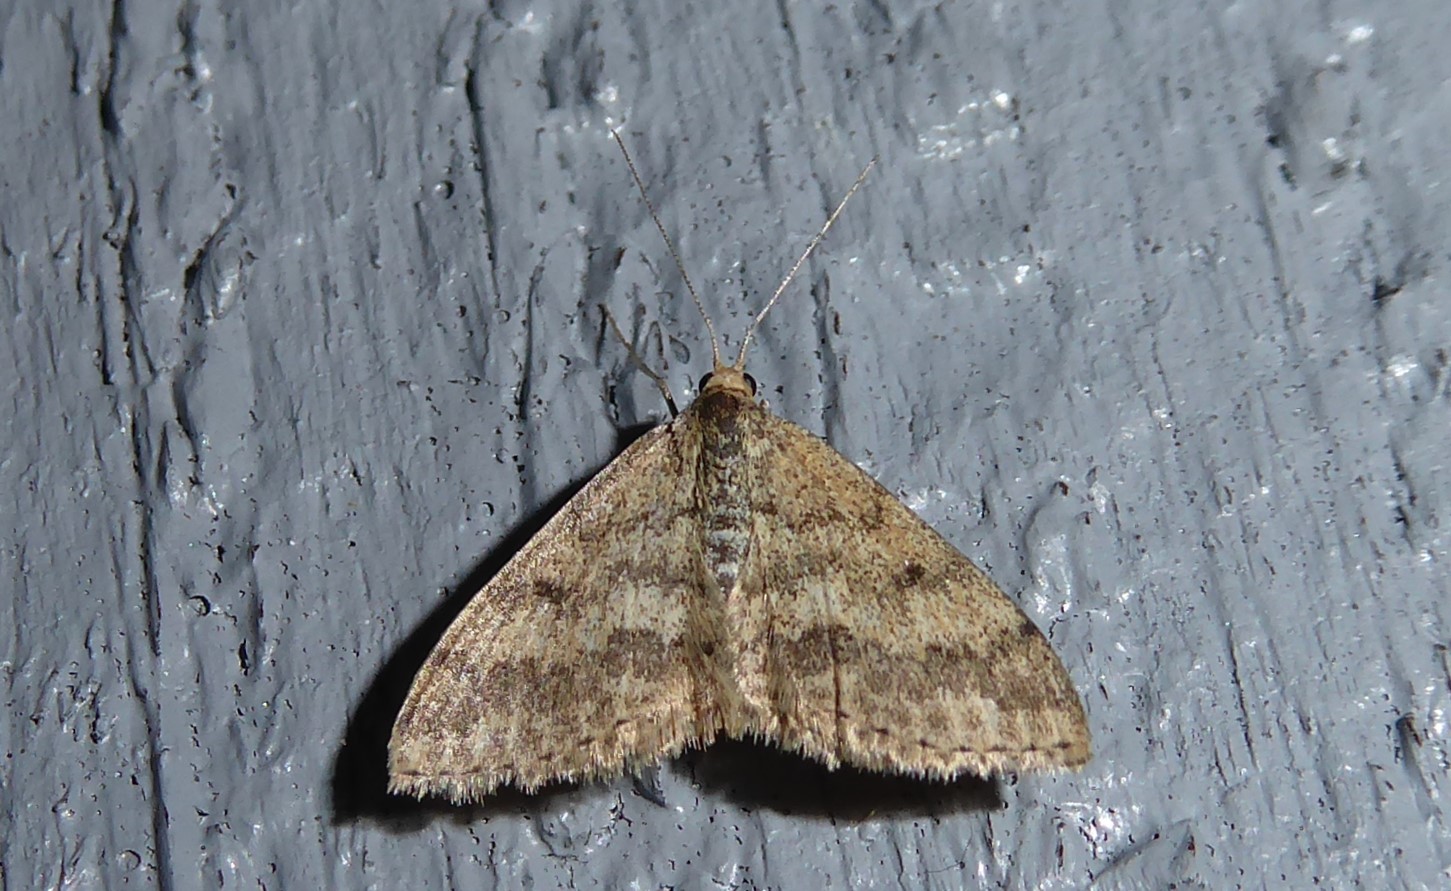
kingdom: Animalia
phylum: Arthropoda
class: Insecta
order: Lepidoptera
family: Geometridae
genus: Scopula
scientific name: Scopula rubraria
